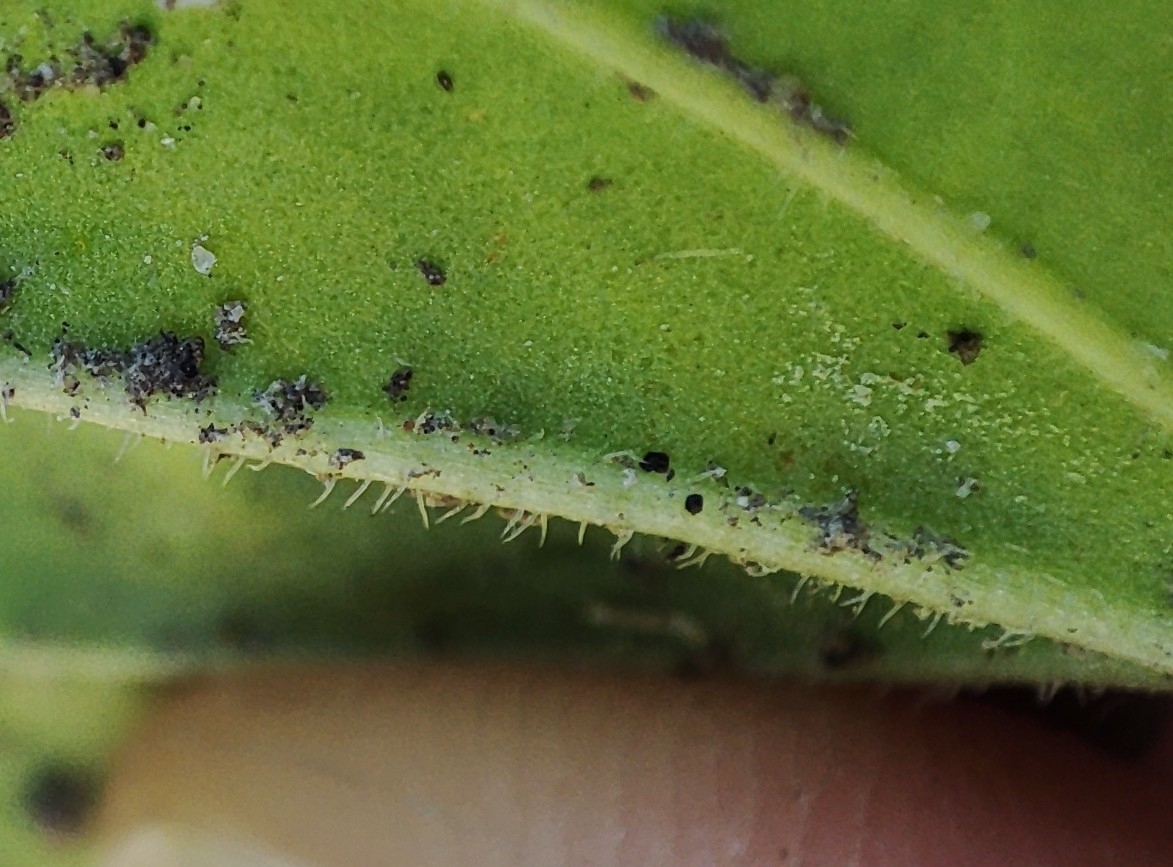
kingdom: Plantae
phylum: Tracheophyta
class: Magnoliopsida
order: Lamiales
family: Plantaginaceae
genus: Plantago
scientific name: Plantago uliginosa
